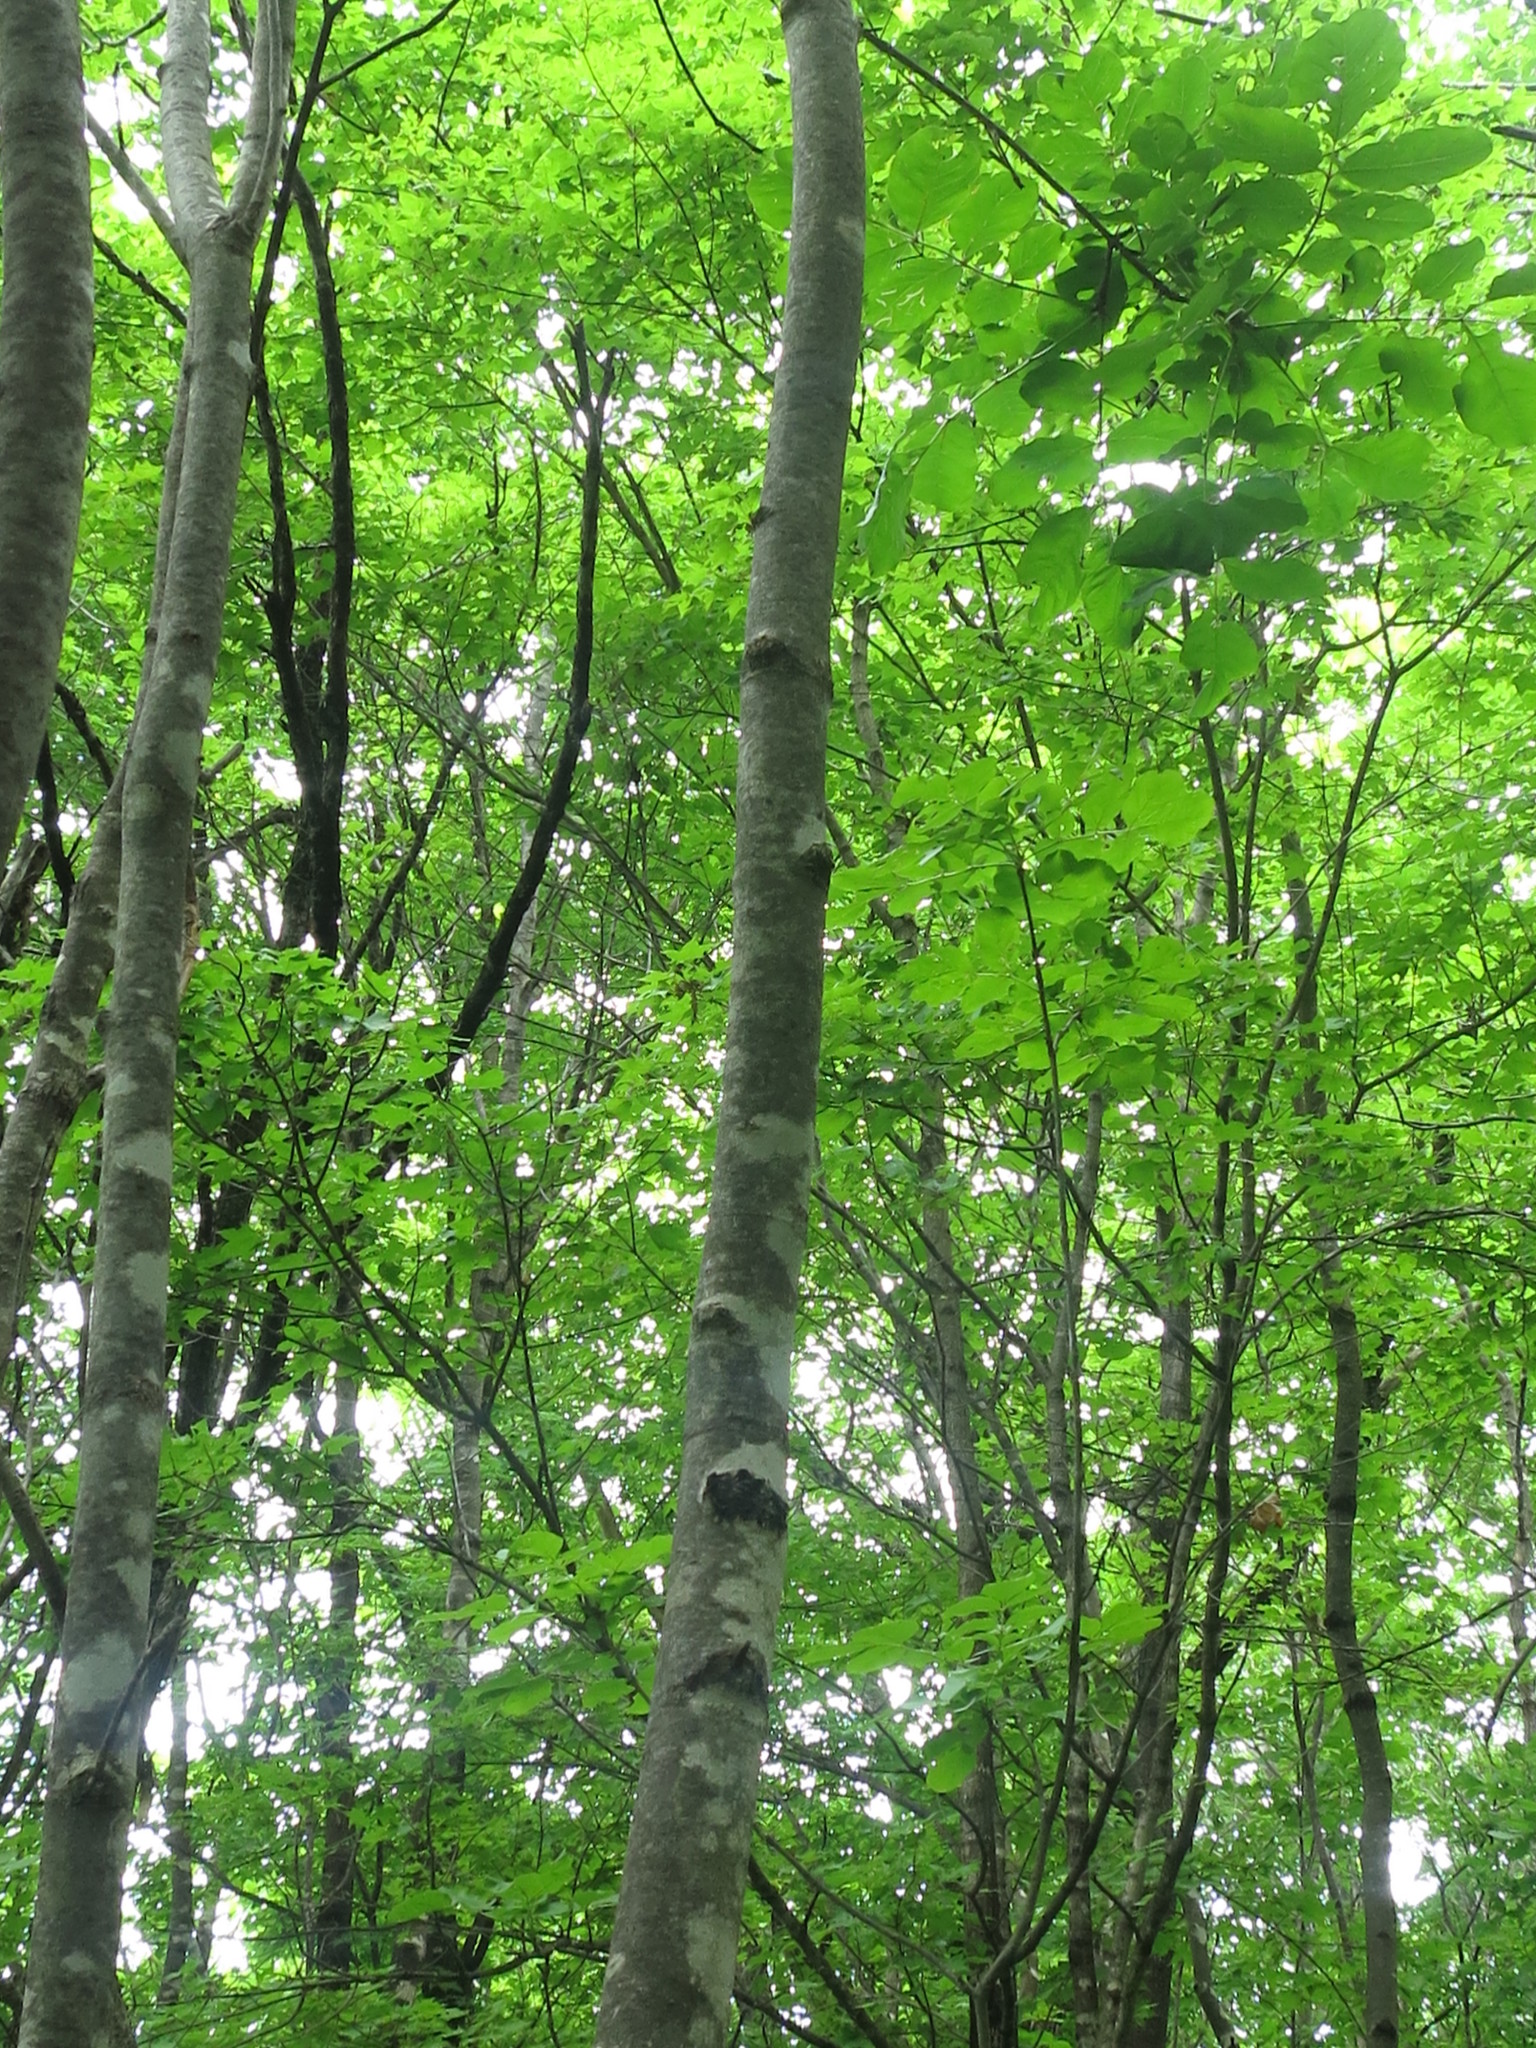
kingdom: Plantae
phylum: Tracheophyta
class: Magnoliopsida
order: Lamiales
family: Oleaceae
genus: Fraxinus
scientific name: Fraxinus chinensis
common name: Chinese ash
